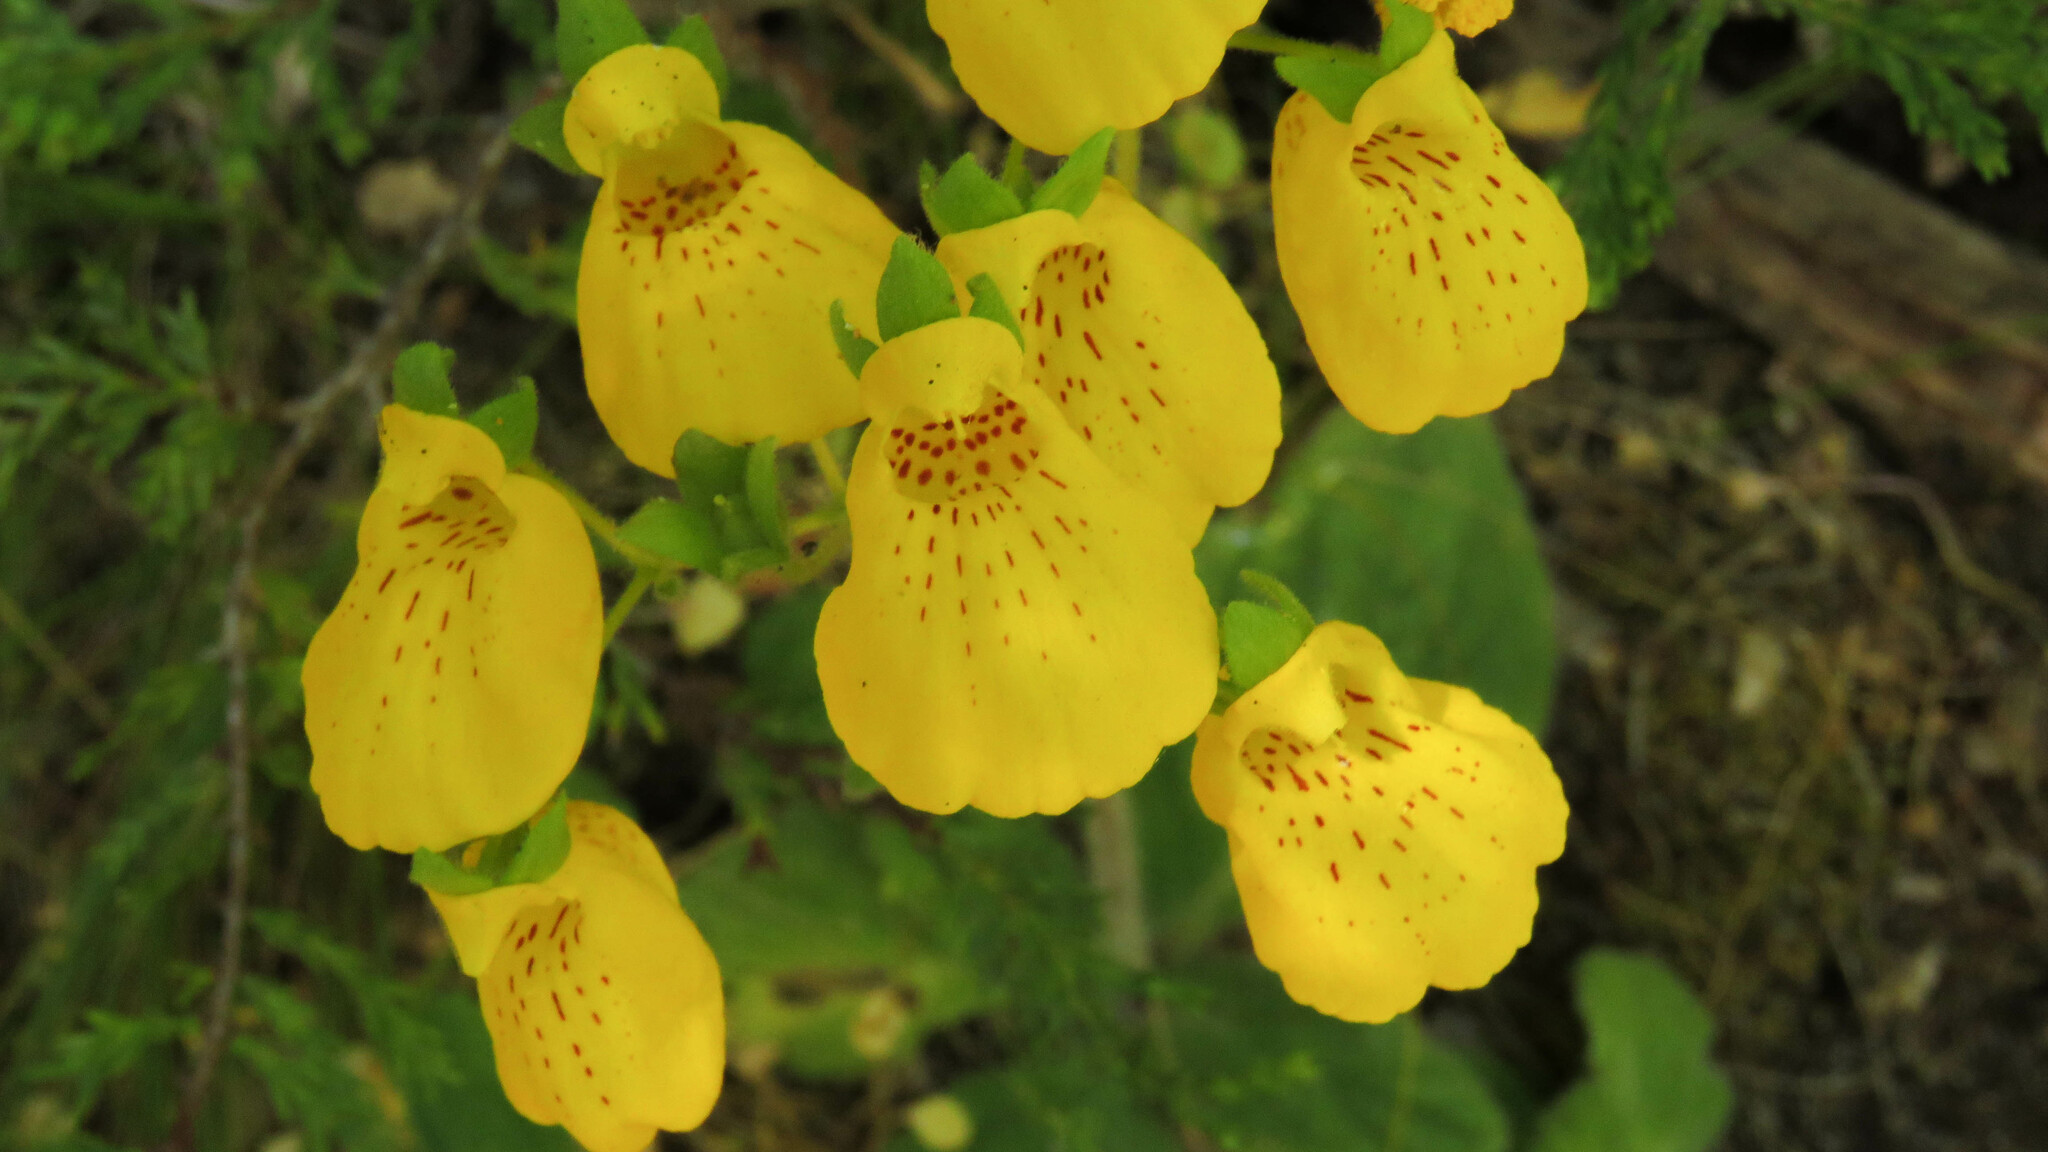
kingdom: Plantae
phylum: Tracheophyta
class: Magnoliopsida
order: Lamiales
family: Calceolariaceae
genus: Calceolaria
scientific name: Calceolaria crenatiflora
